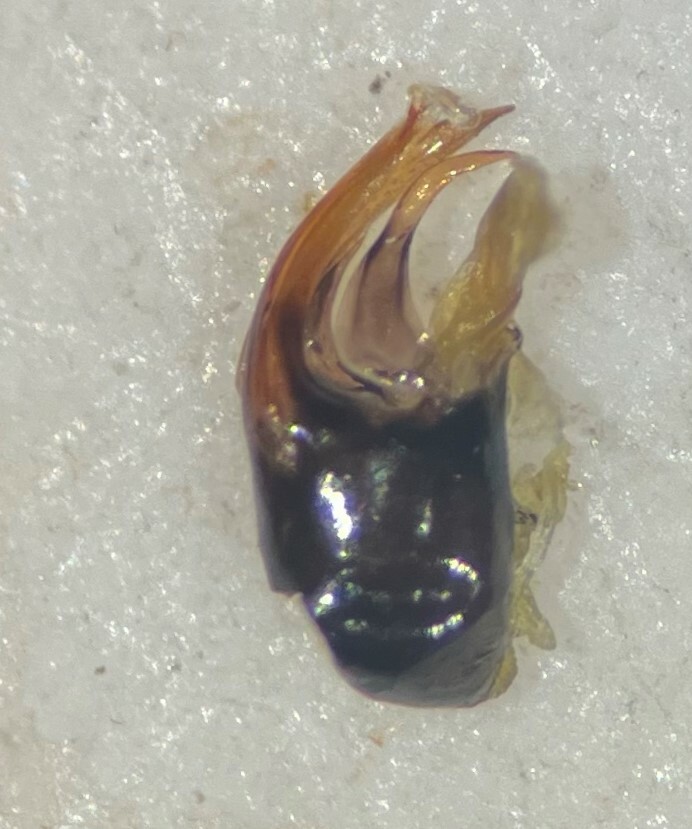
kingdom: Animalia
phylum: Arthropoda
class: Insecta
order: Hemiptera
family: Corixidae
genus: Callicorixa
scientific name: Callicorixa audeni
